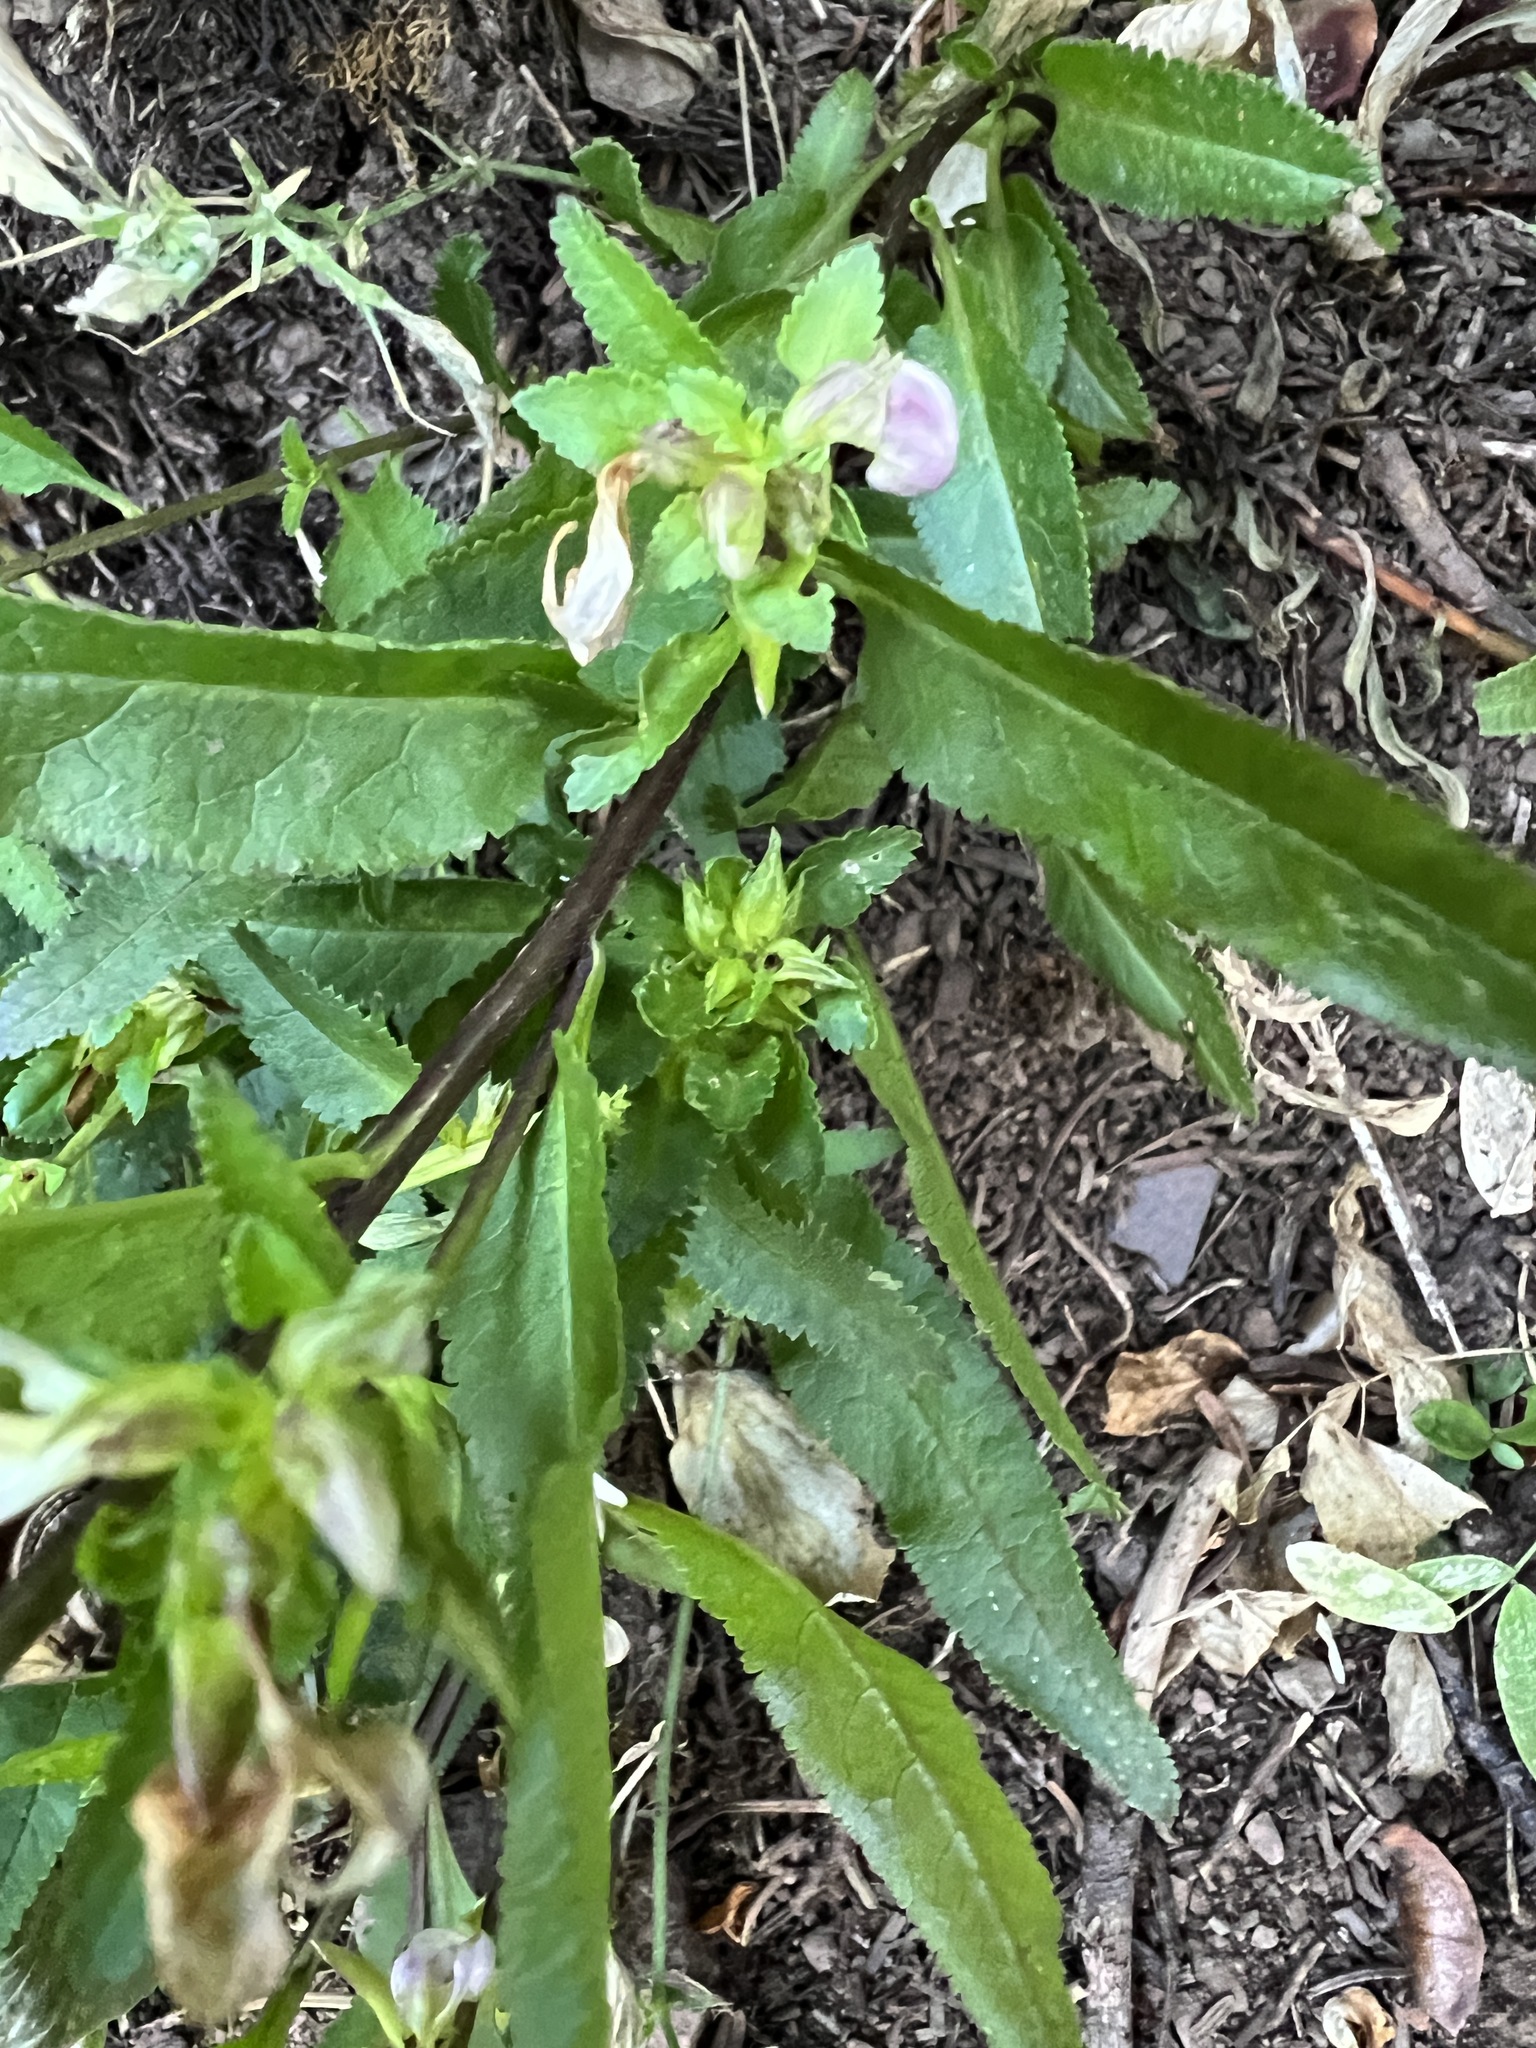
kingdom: Plantae
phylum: Tracheophyta
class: Magnoliopsida
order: Lamiales
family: Orobanchaceae
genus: Pedicularis
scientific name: Pedicularis racemosa
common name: Leafy lousewort
